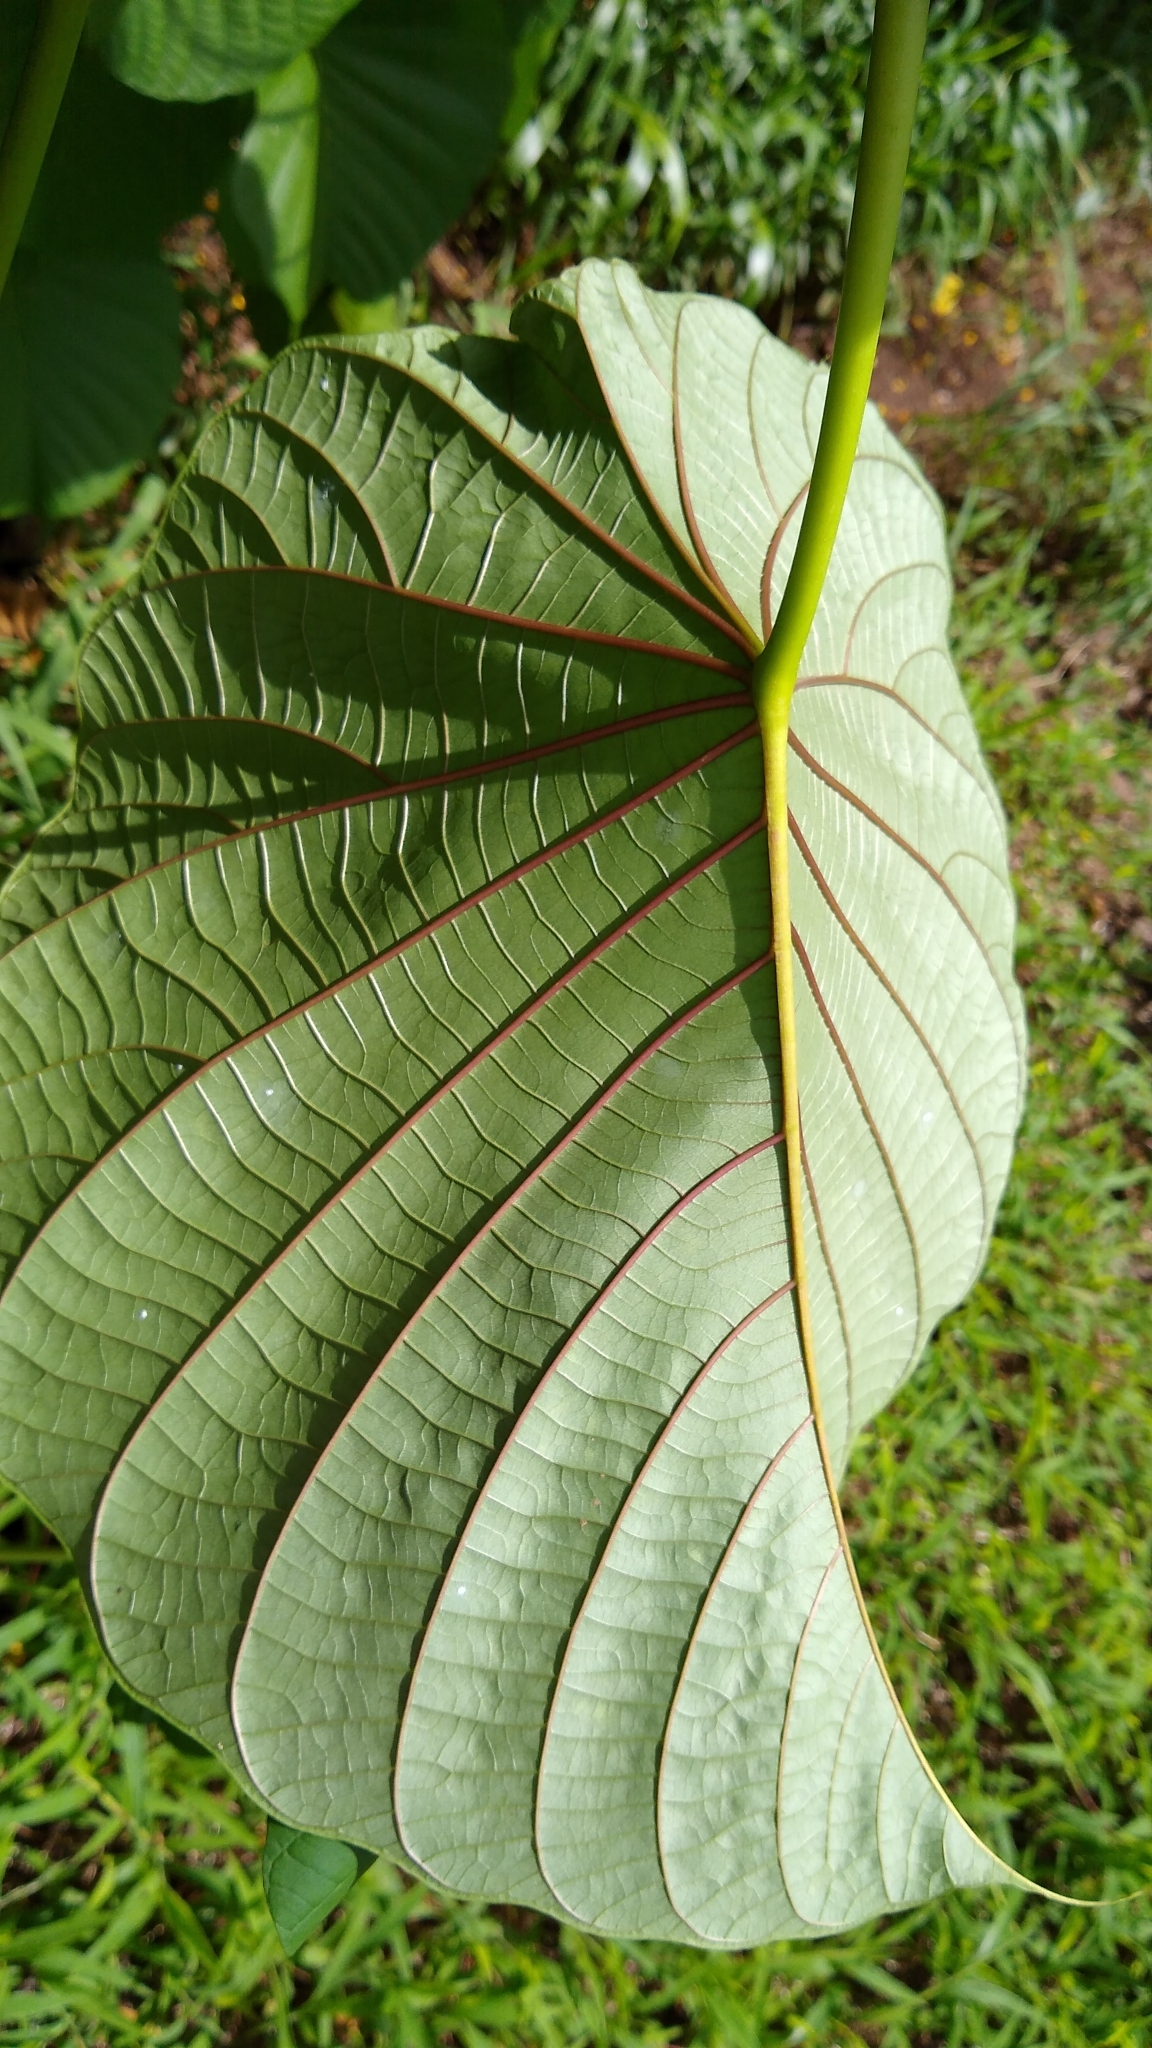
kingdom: Plantae
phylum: Tracheophyta
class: Magnoliopsida
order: Solanales
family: Convolvulaceae
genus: Decalobanthus
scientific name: Decalobanthus peltatus
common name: Merremia
